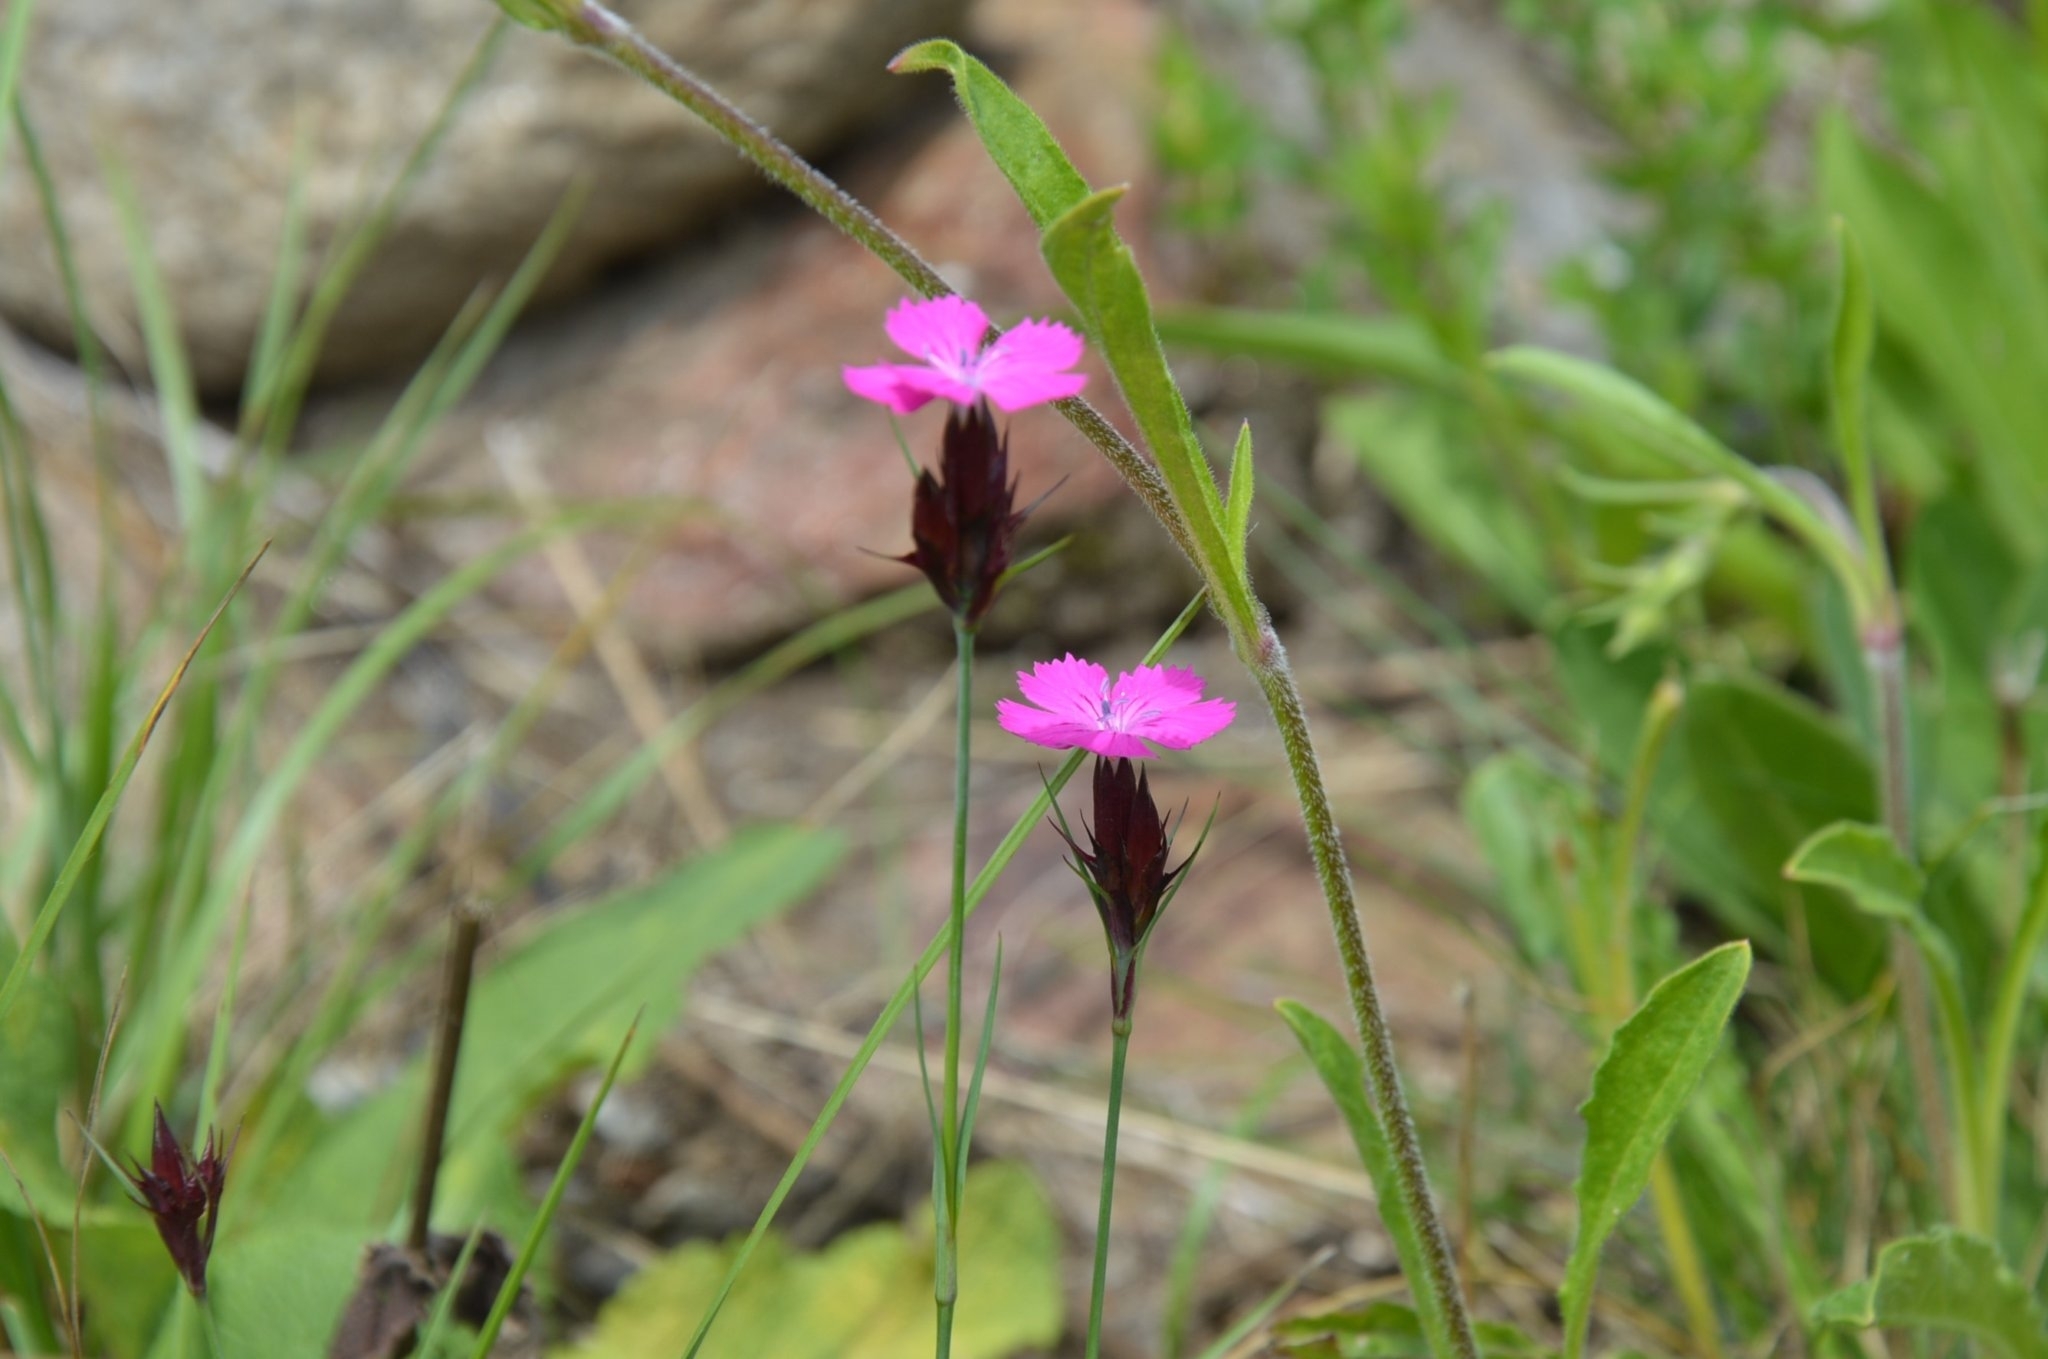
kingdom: Plantae
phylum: Tracheophyta
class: Magnoliopsida
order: Caryophyllales
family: Caryophyllaceae
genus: Dianthus
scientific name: Dianthus carthusianorum
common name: Carthusian pink
